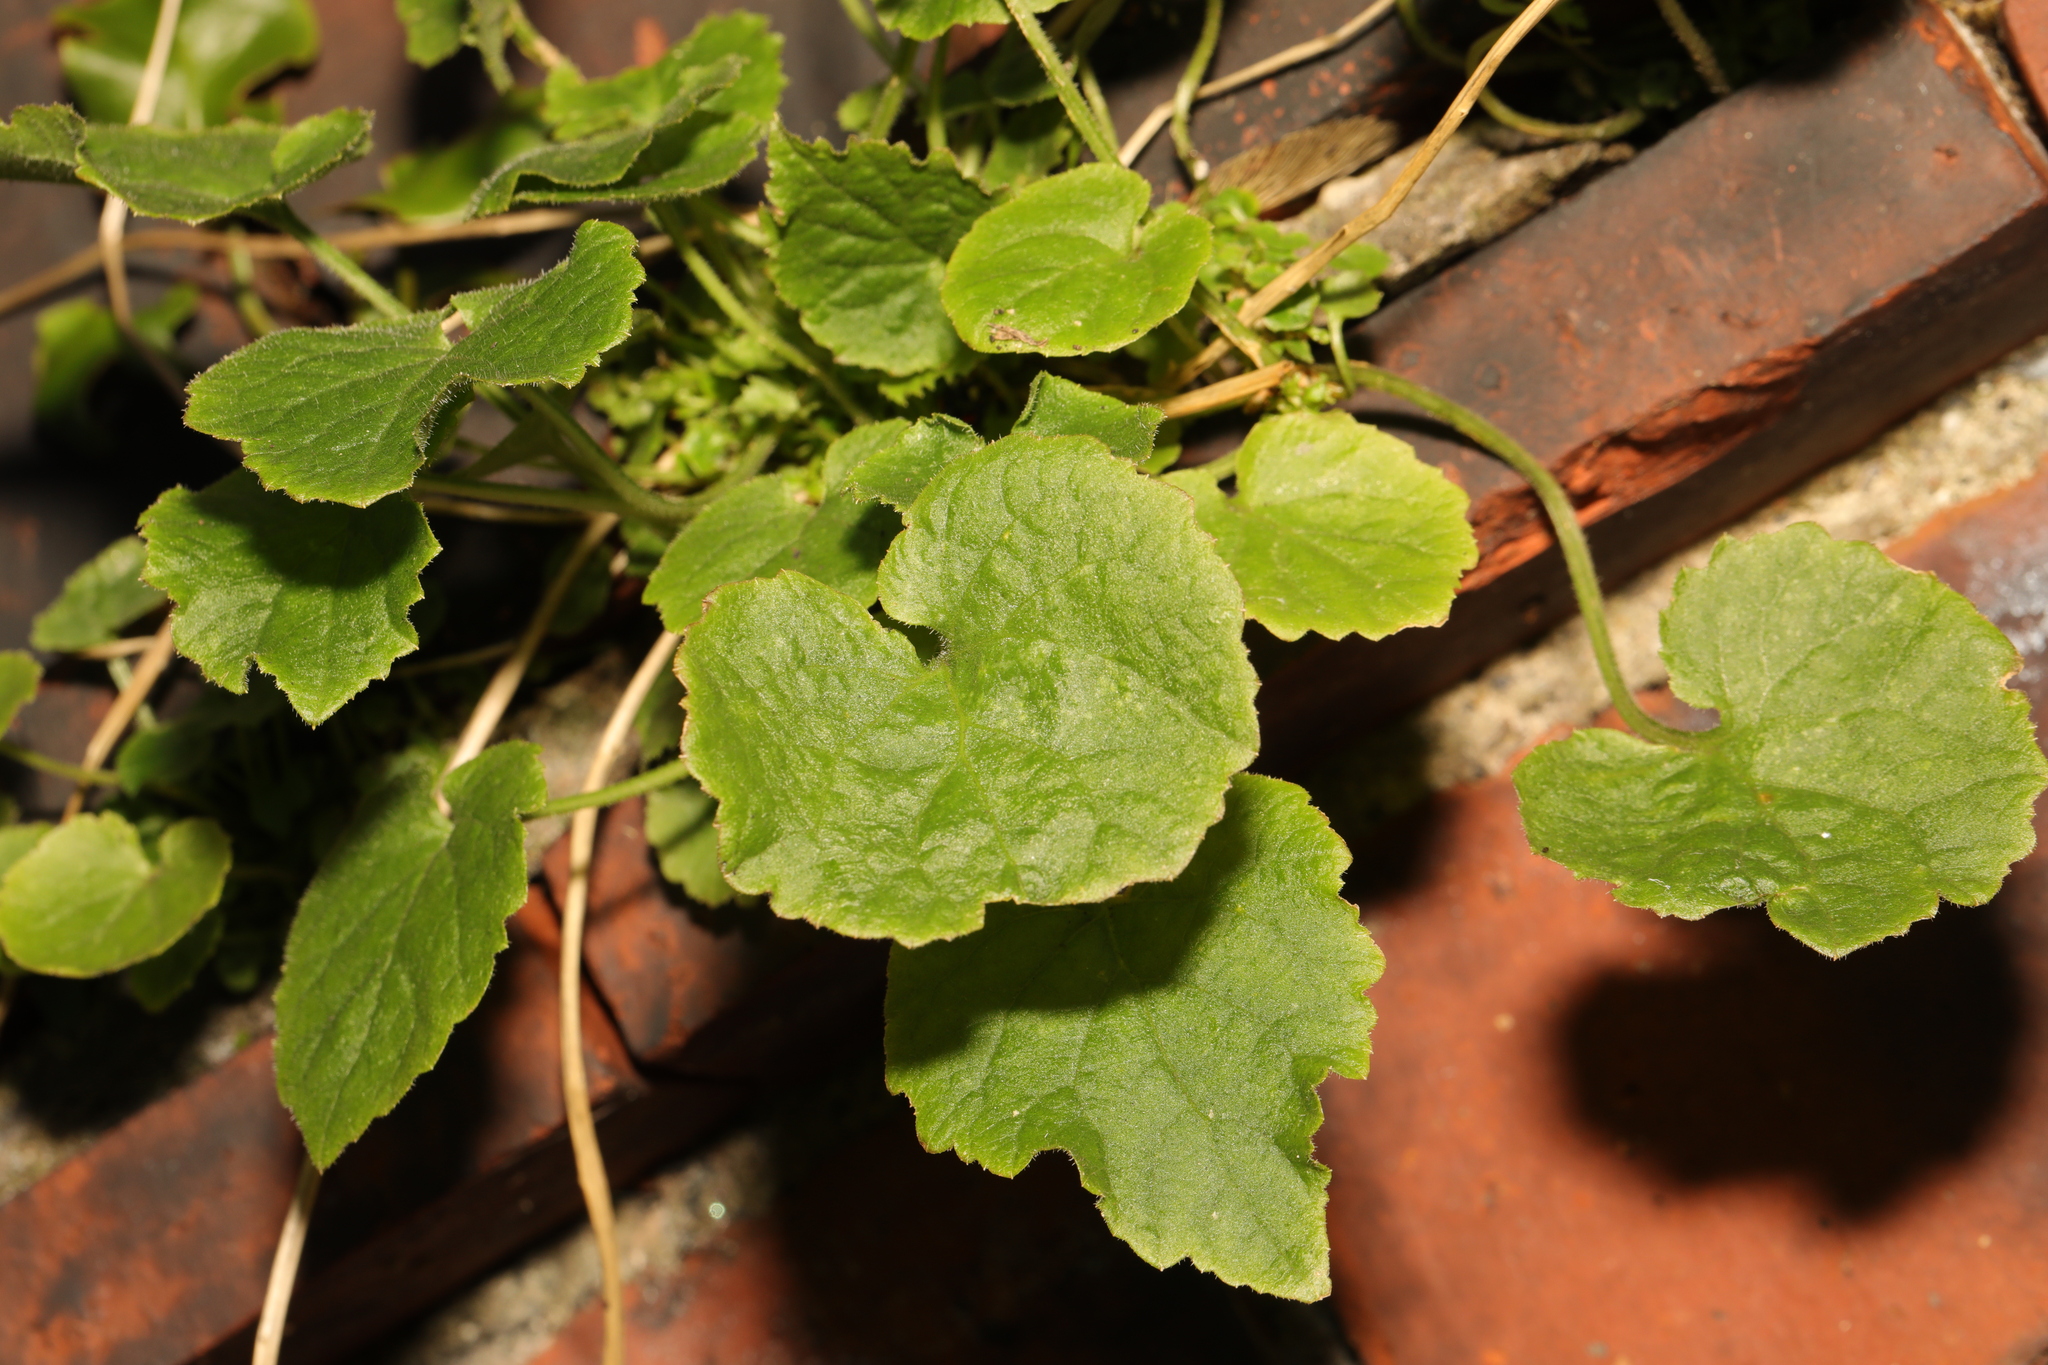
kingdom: Plantae
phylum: Tracheophyta
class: Magnoliopsida
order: Asterales
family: Campanulaceae
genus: Campanula
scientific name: Campanula poscharskyana
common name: Trailing bellflower
